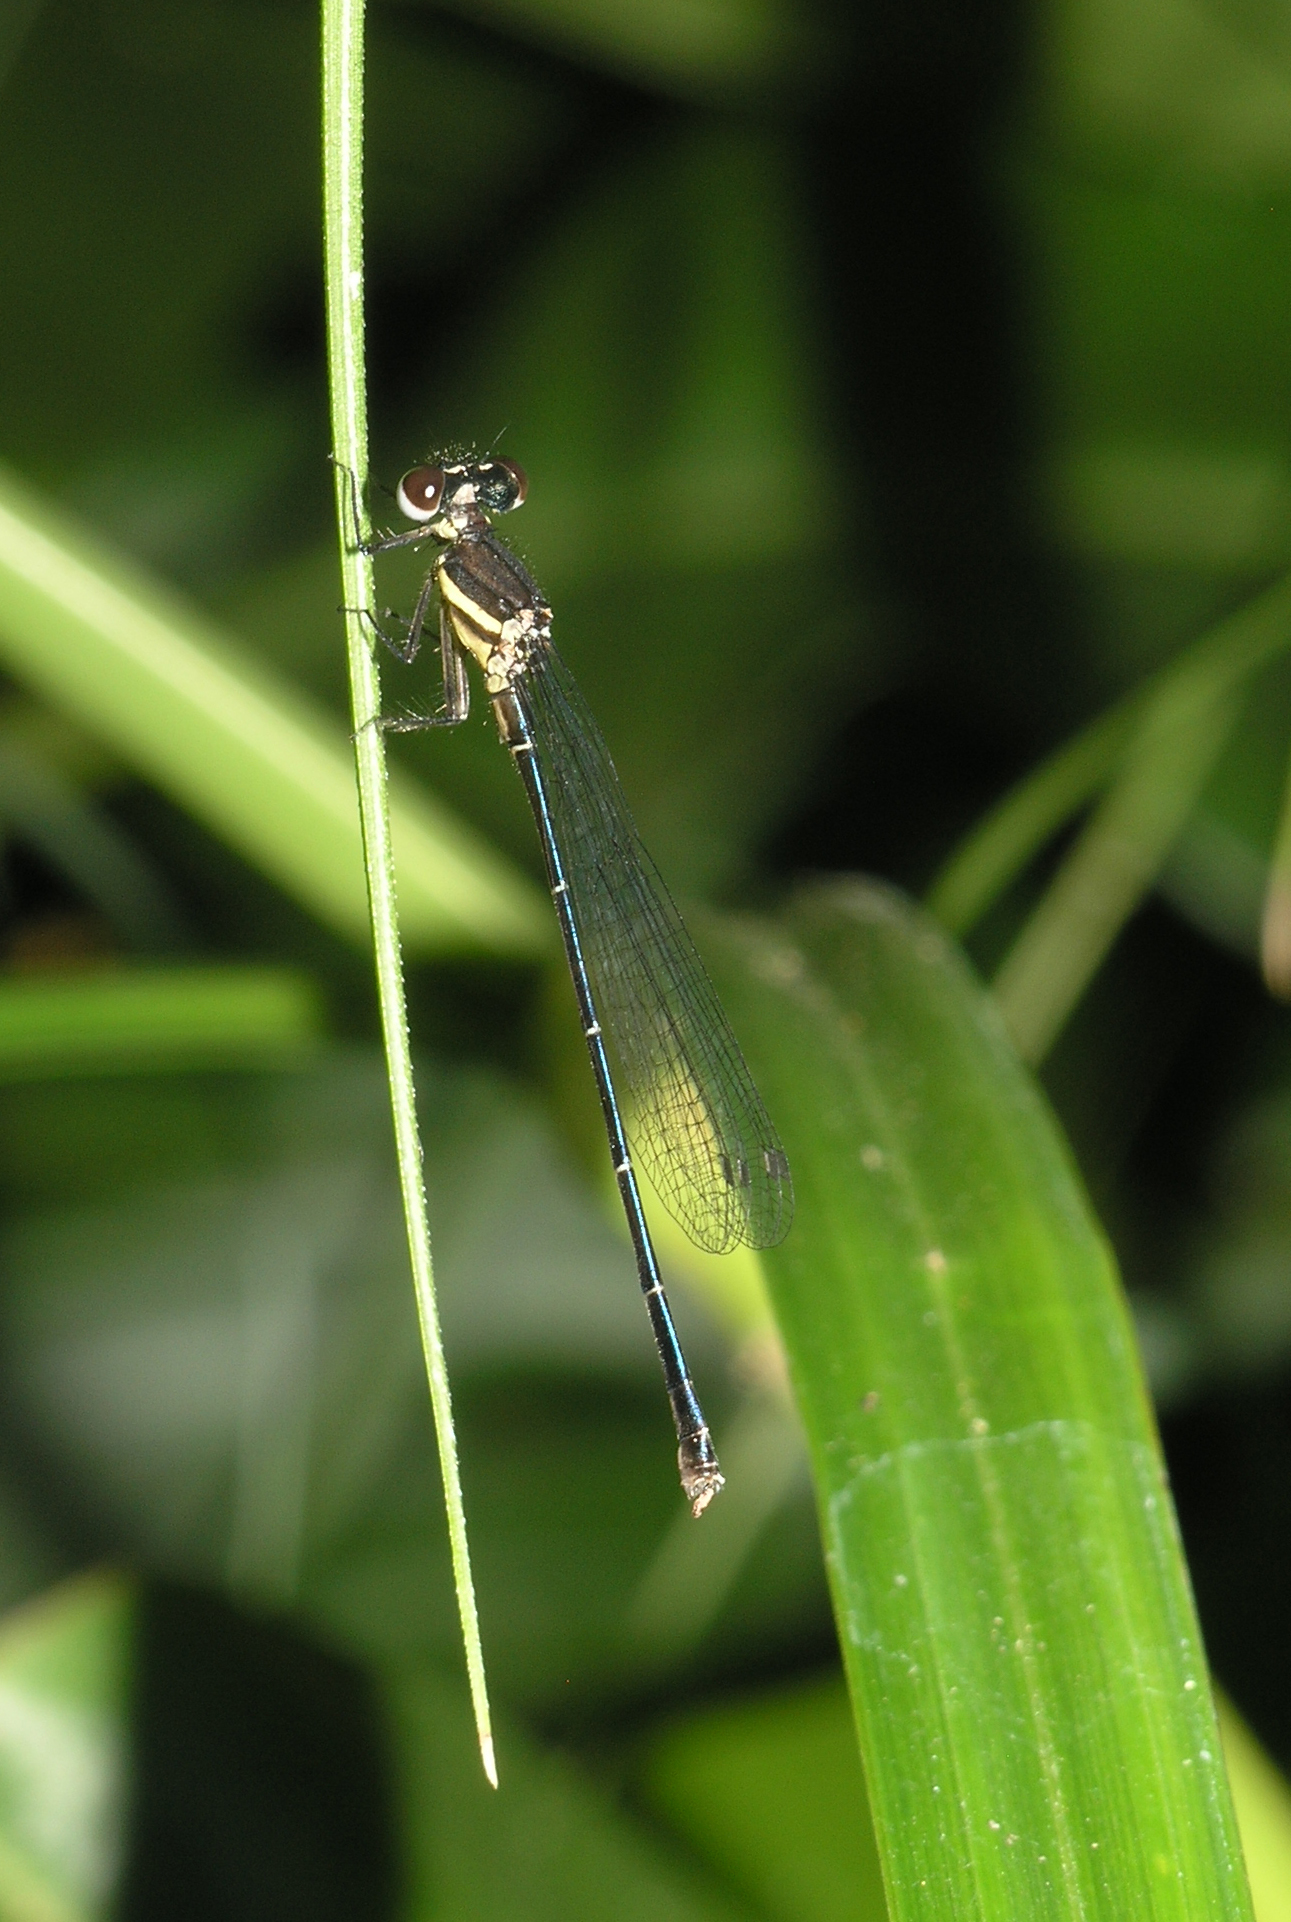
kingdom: Animalia
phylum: Arthropoda
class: Insecta
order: Odonata
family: Platycnemididae
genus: Onychargia
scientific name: Onychargia atrocyana
